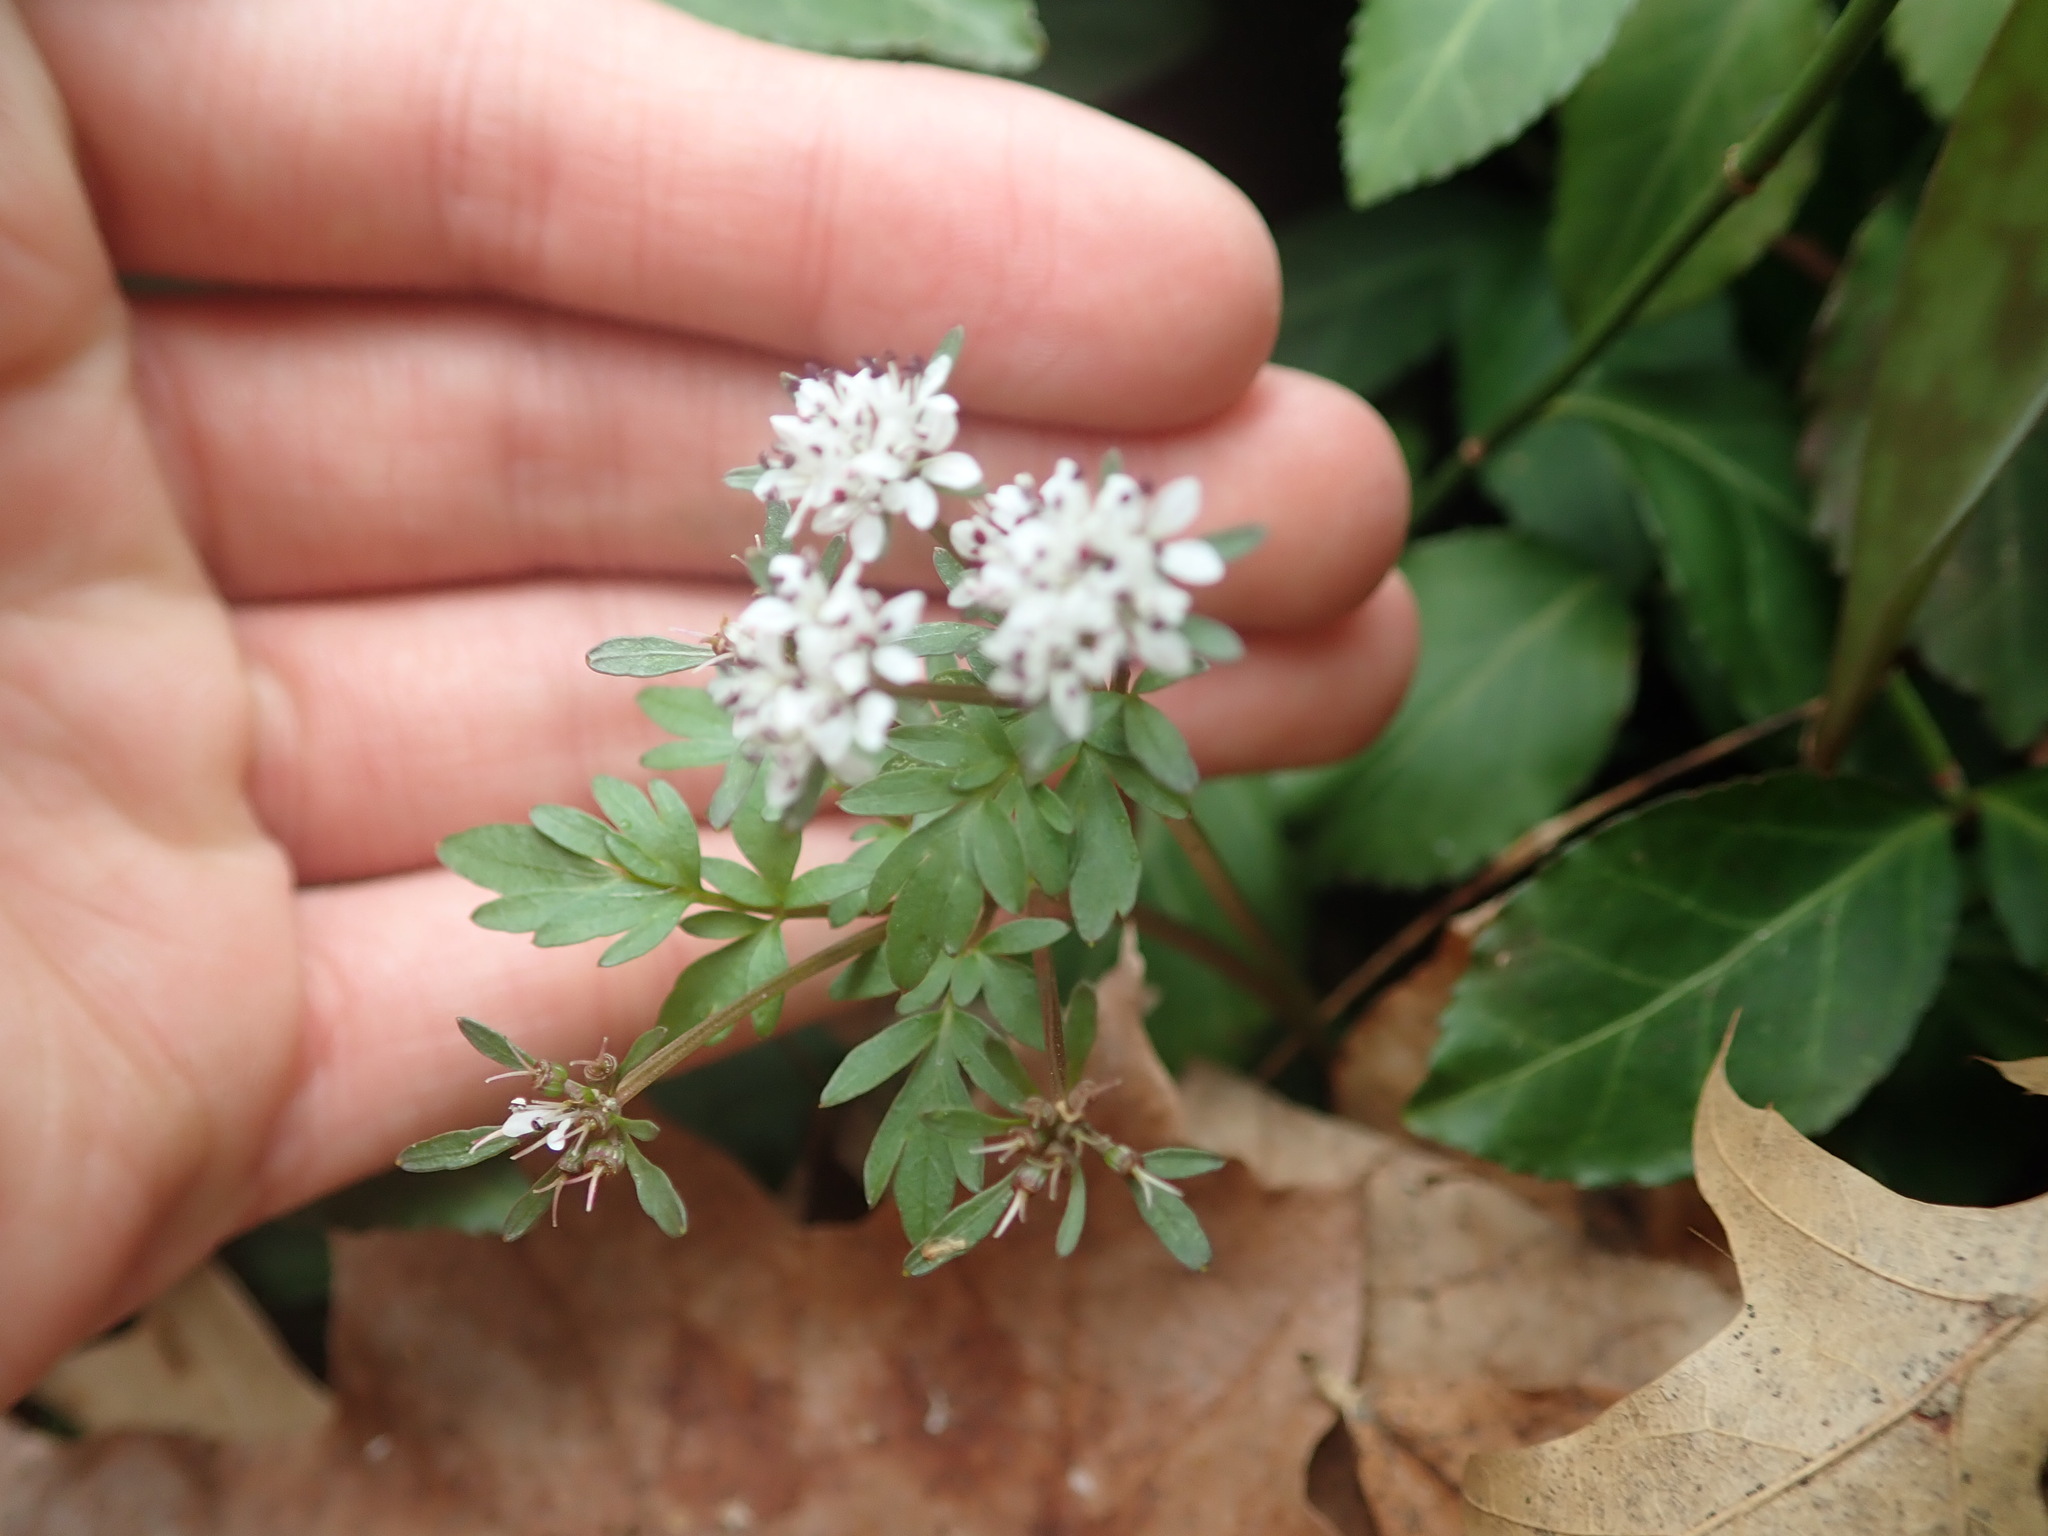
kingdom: Plantae
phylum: Tracheophyta
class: Magnoliopsida
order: Apiales
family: Apiaceae
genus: Erigenia
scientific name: Erigenia bulbosa
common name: Pepper-and-salt
